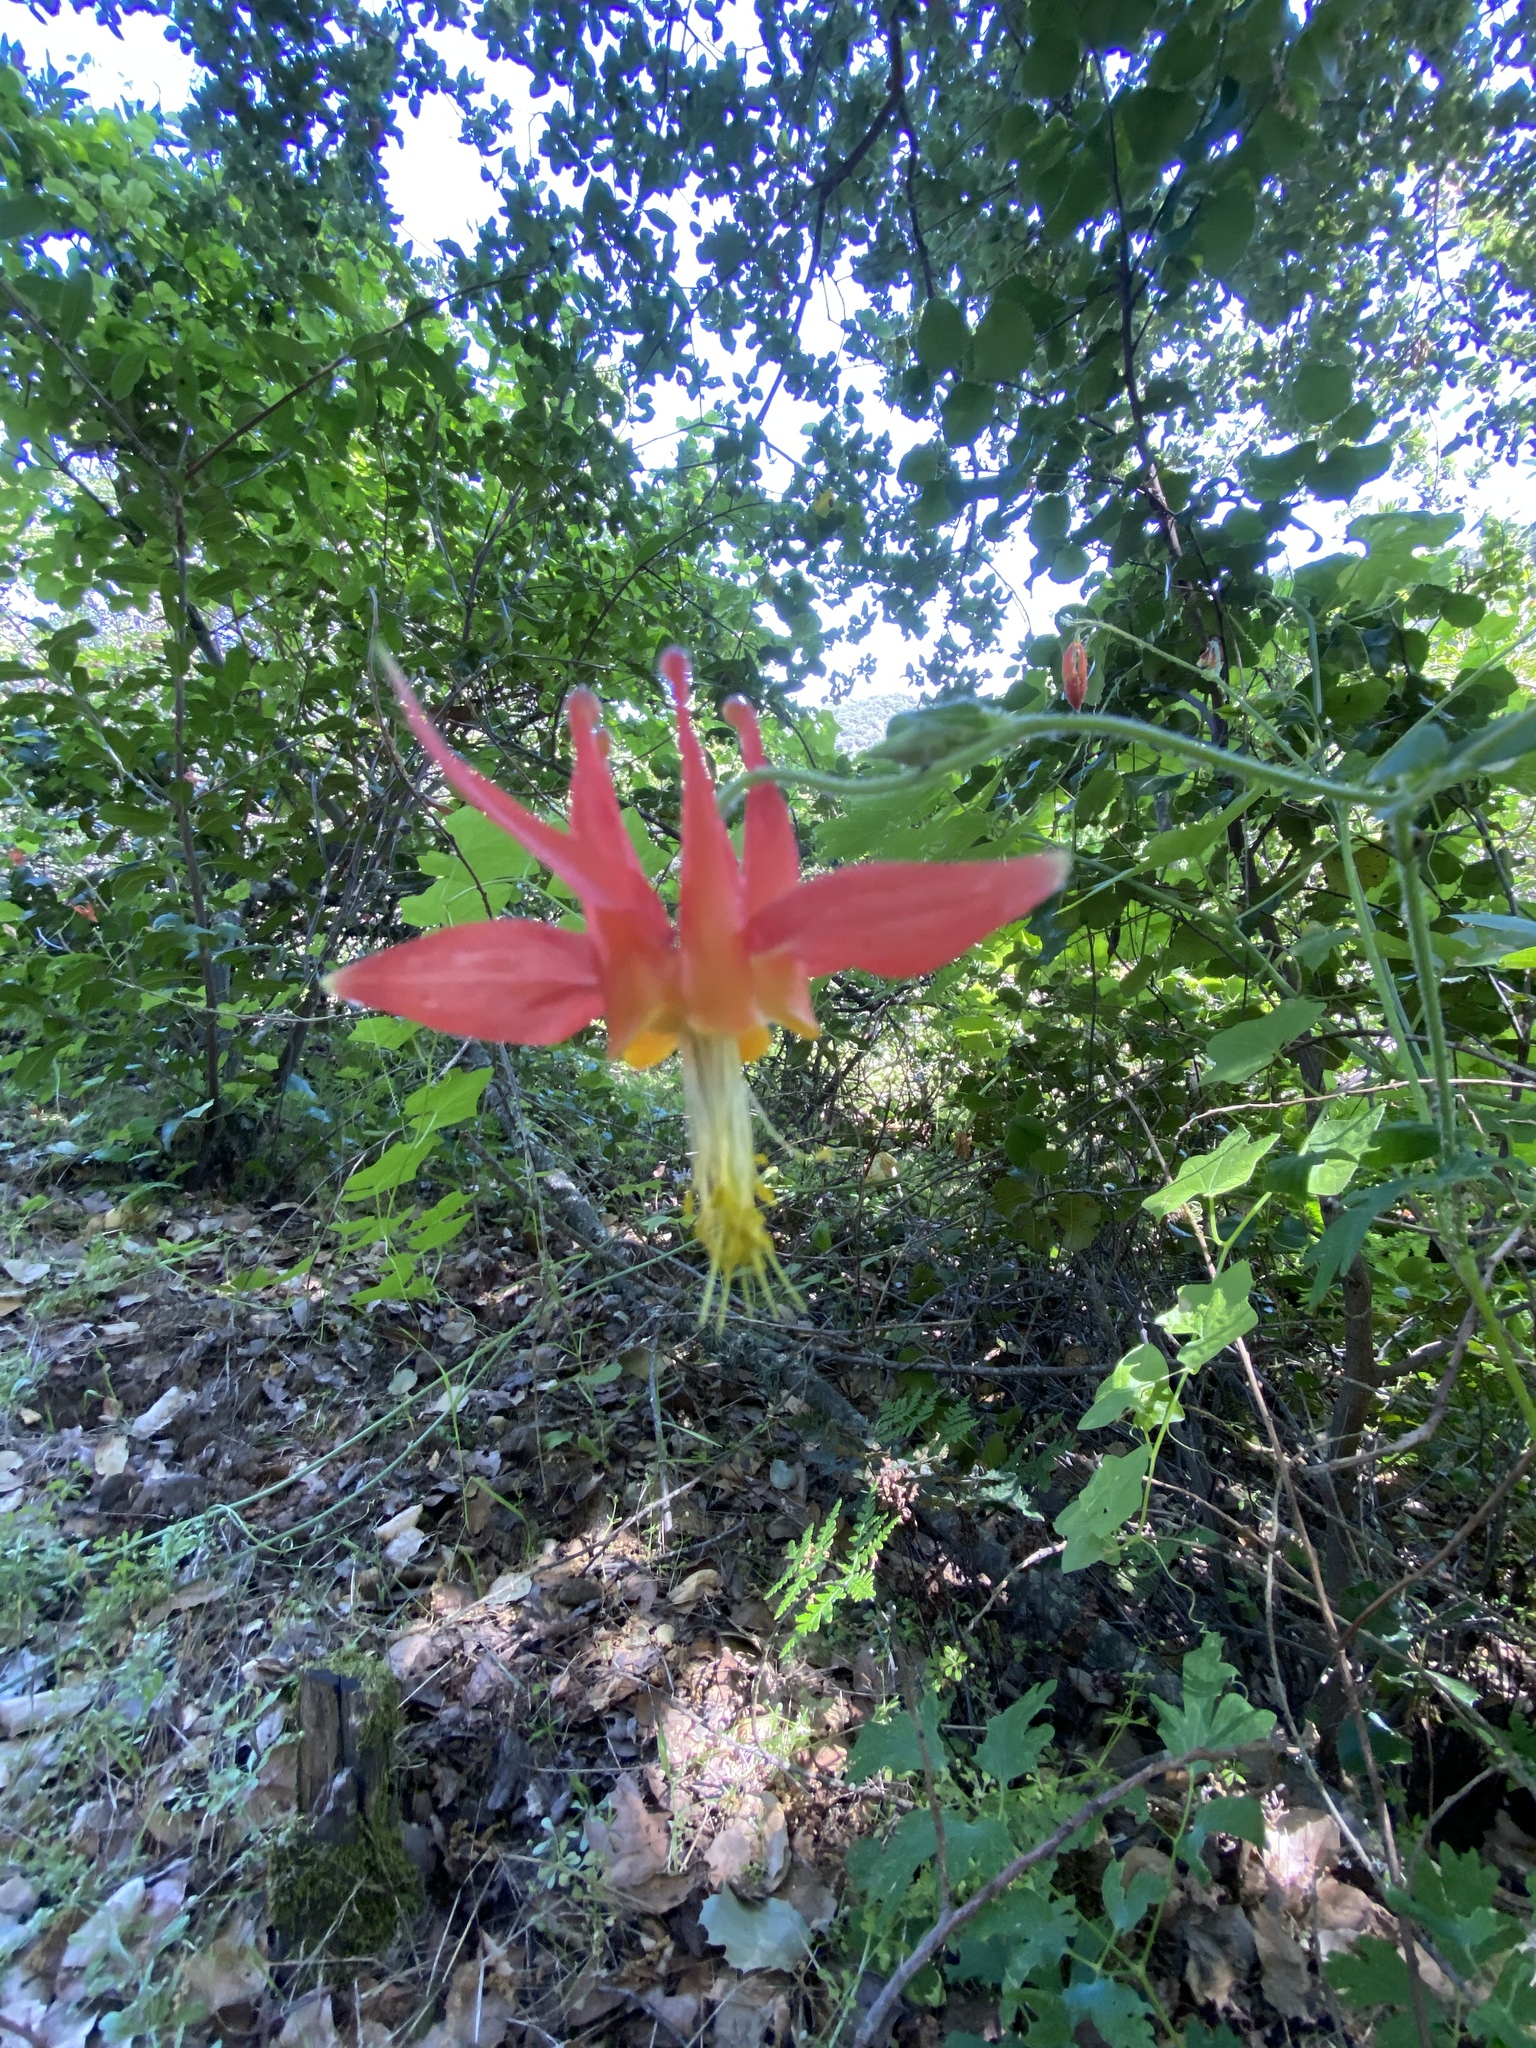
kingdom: Plantae
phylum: Tracheophyta
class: Magnoliopsida
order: Ranunculales
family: Ranunculaceae
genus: Aquilegia
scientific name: Aquilegia formosa
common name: Sitka columbine
